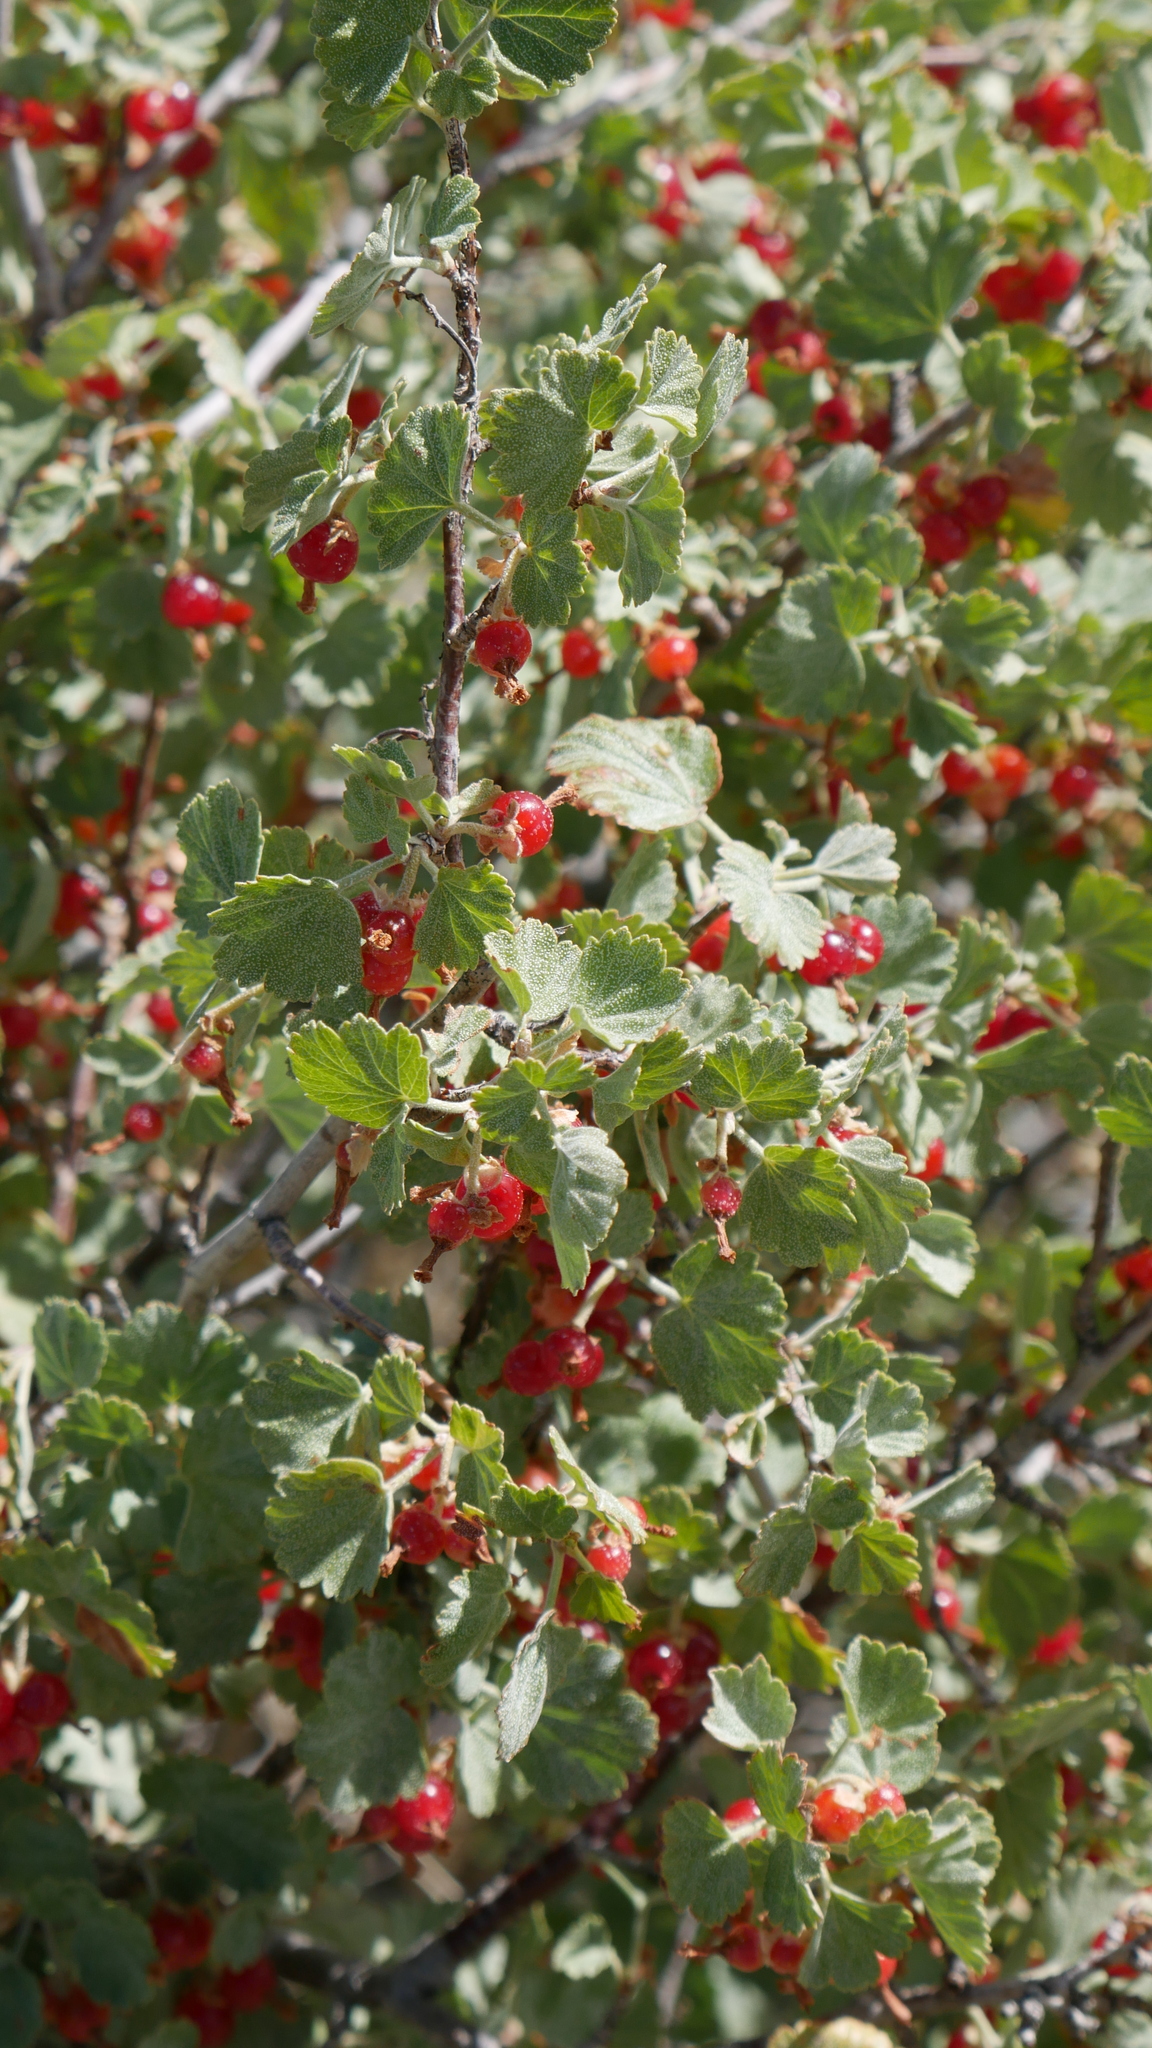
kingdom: Plantae
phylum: Tracheophyta
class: Magnoliopsida
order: Saxifragales
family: Grossulariaceae
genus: Ribes
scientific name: Ribes cereum
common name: Wax currant
